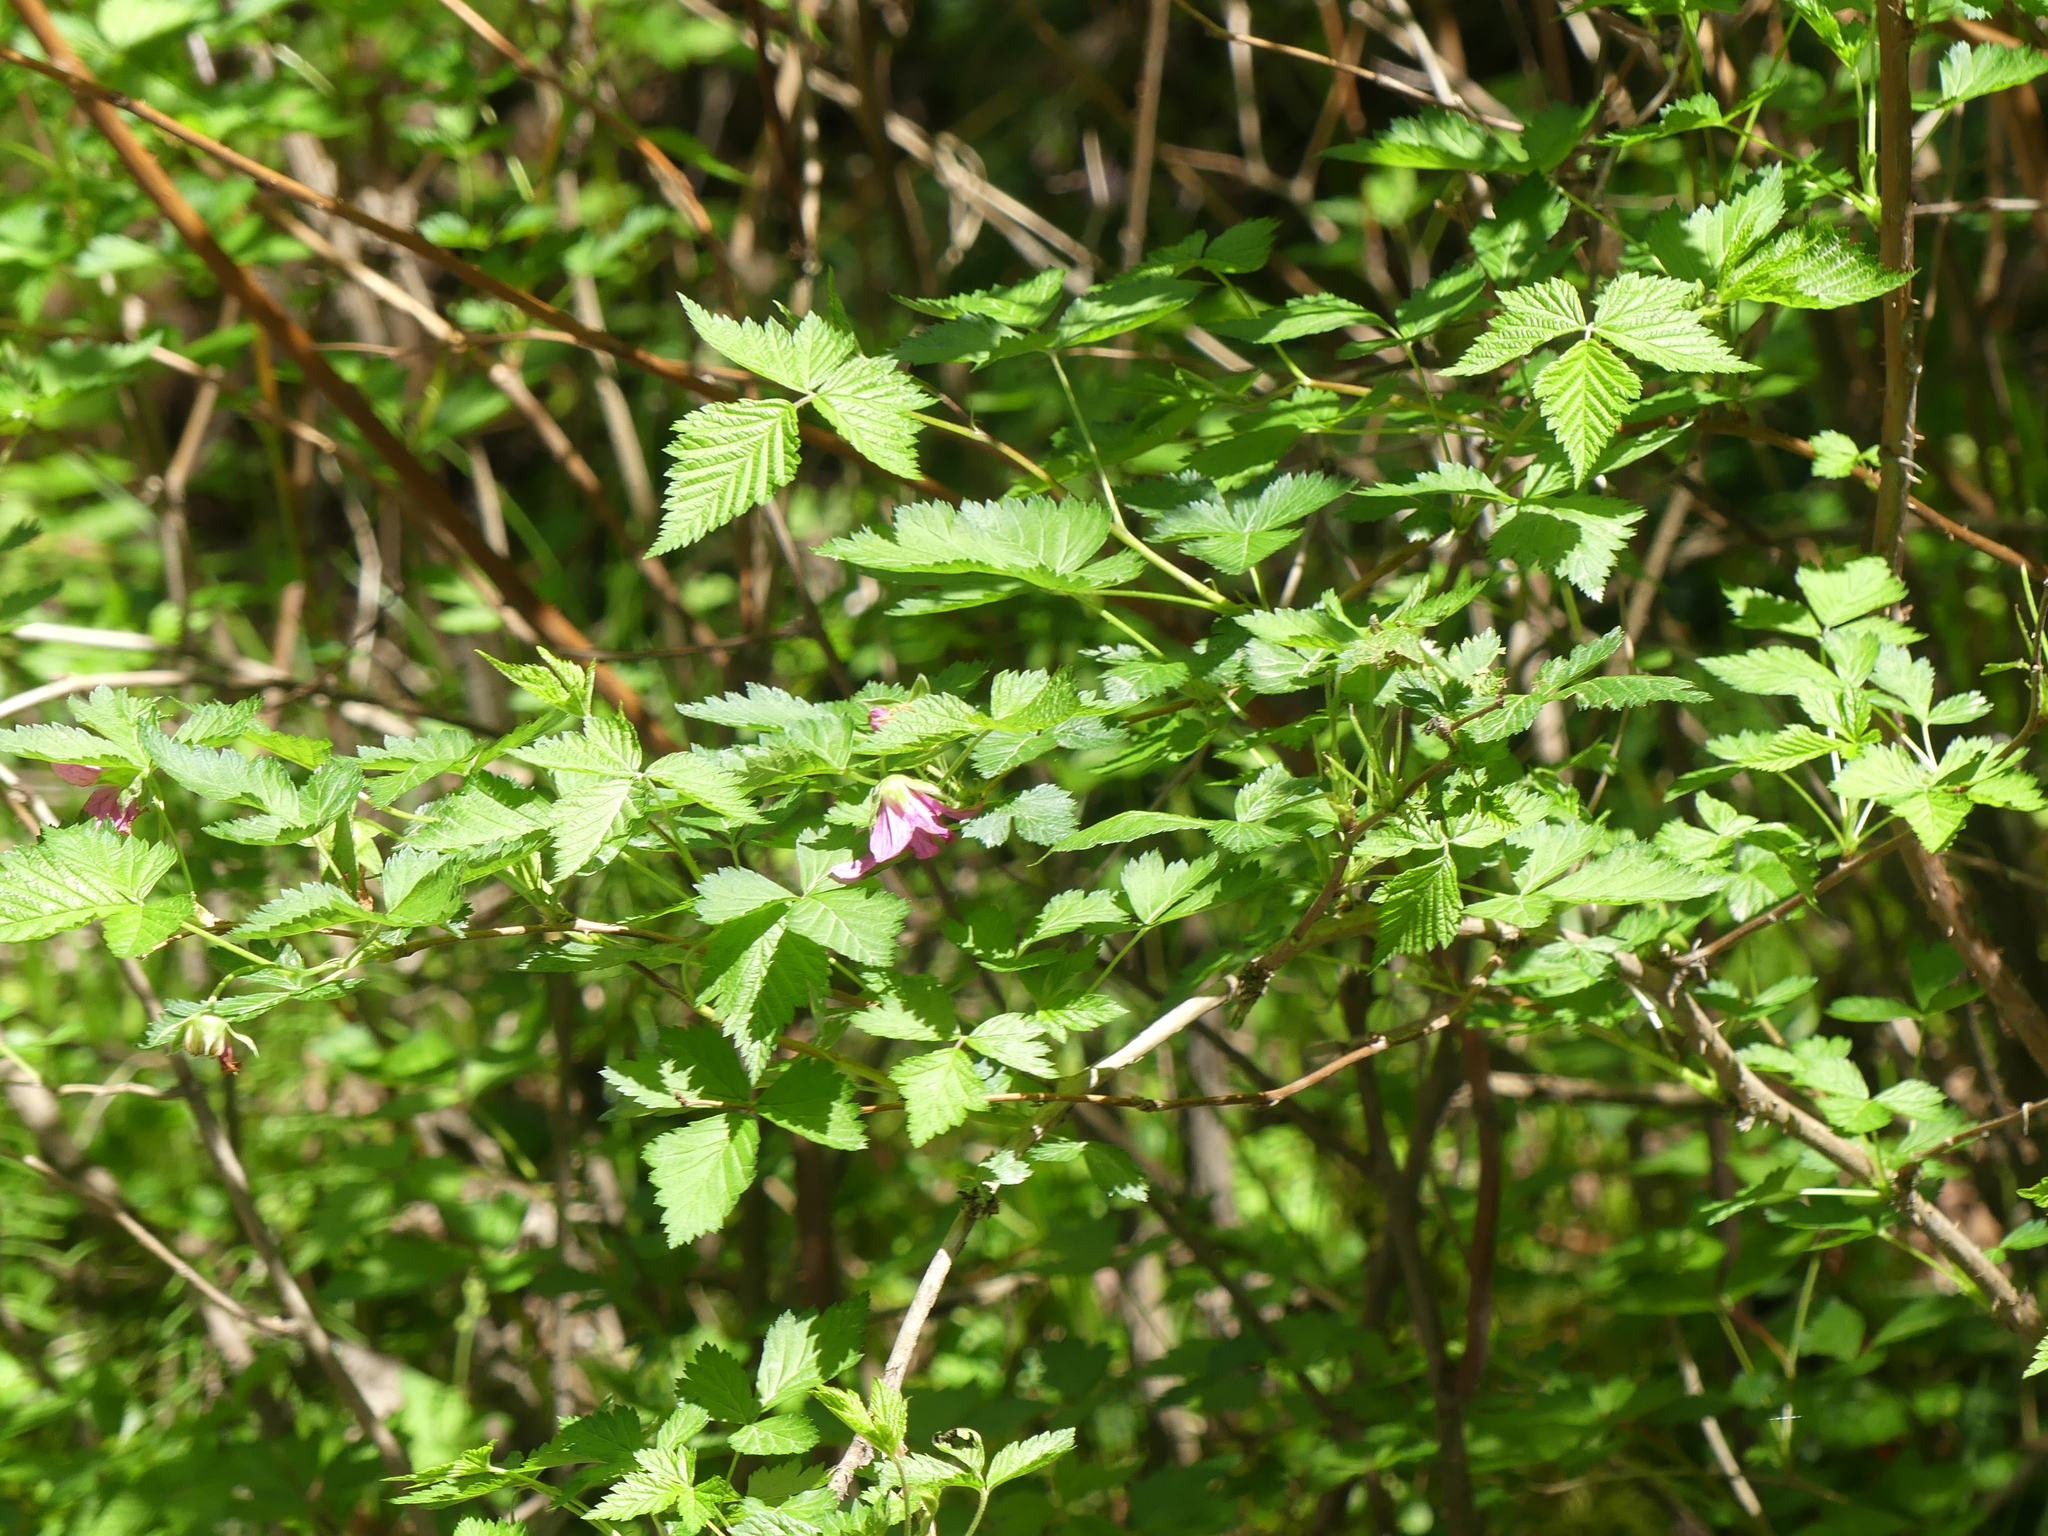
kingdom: Plantae
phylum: Tracheophyta
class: Magnoliopsida
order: Rosales
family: Rosaceae
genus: Rubus
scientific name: Rubus spectabilis
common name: Salmonberry
